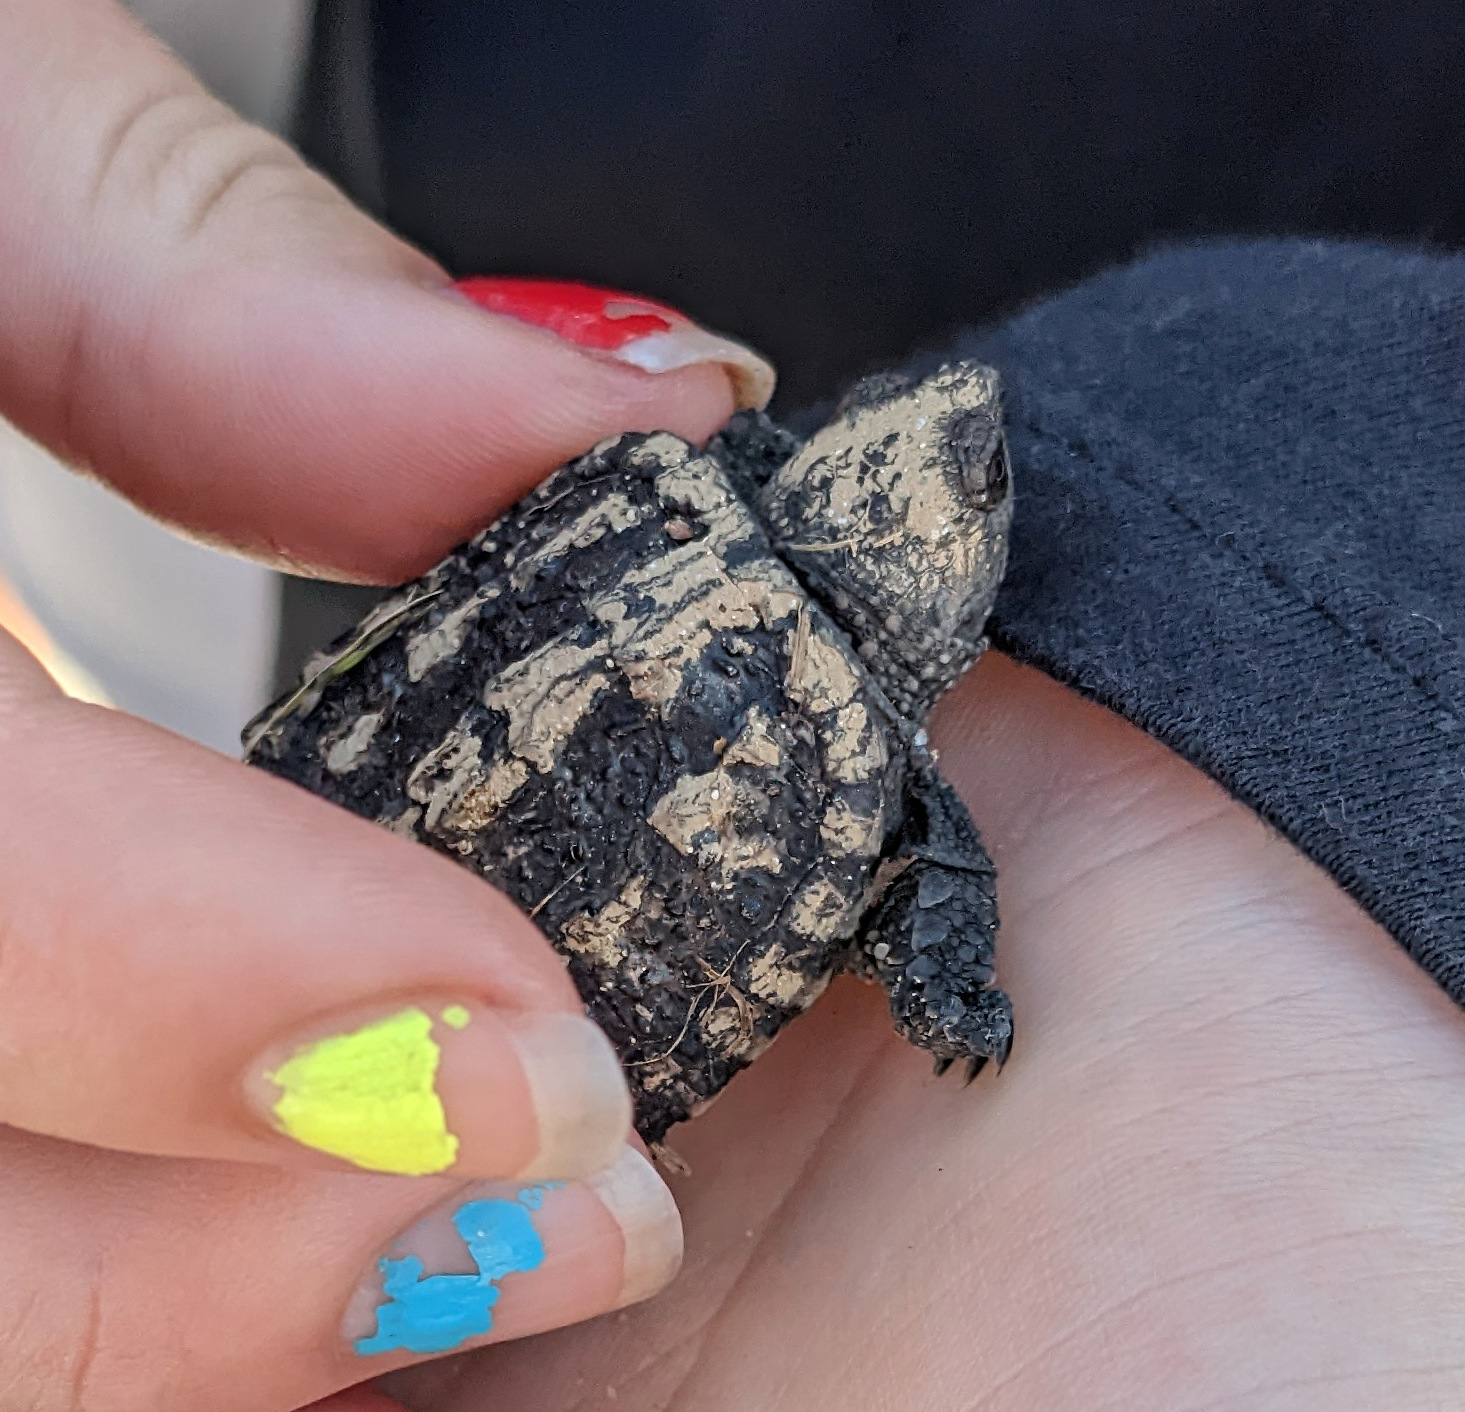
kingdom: Animalia
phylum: Chordata
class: Testudines
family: Chelydridae
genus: Chelydra
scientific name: Chelydra serpentina
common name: Common snapping turtle
